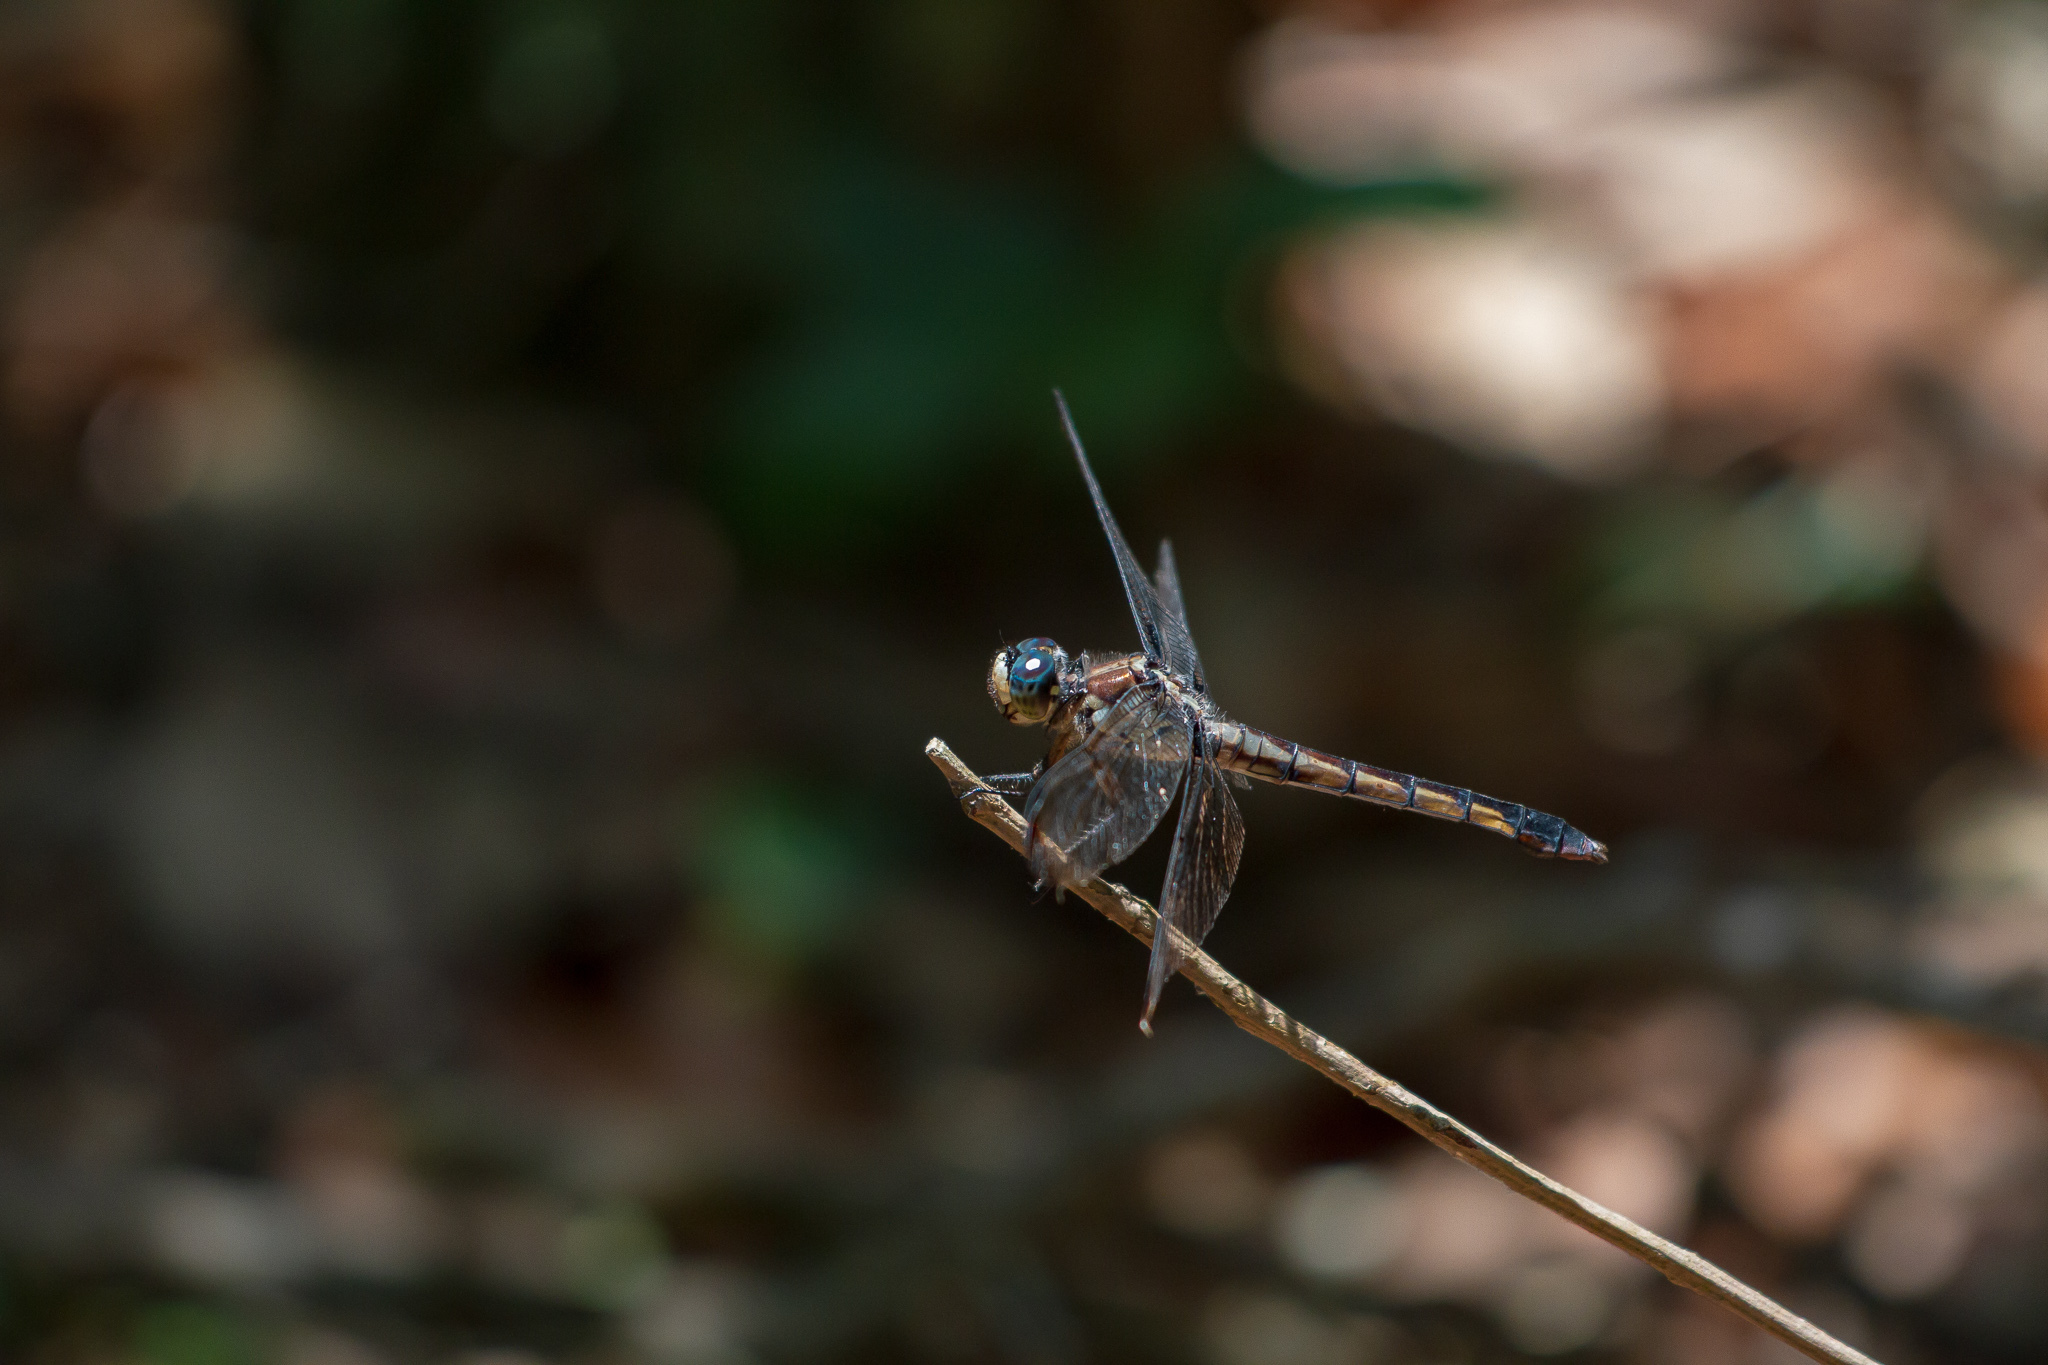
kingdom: Animalia
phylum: Arthropoda
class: Insecta
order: Odonata
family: Libellulidae
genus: Libellula
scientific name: Libellula vibrans
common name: Great blue skimmer
